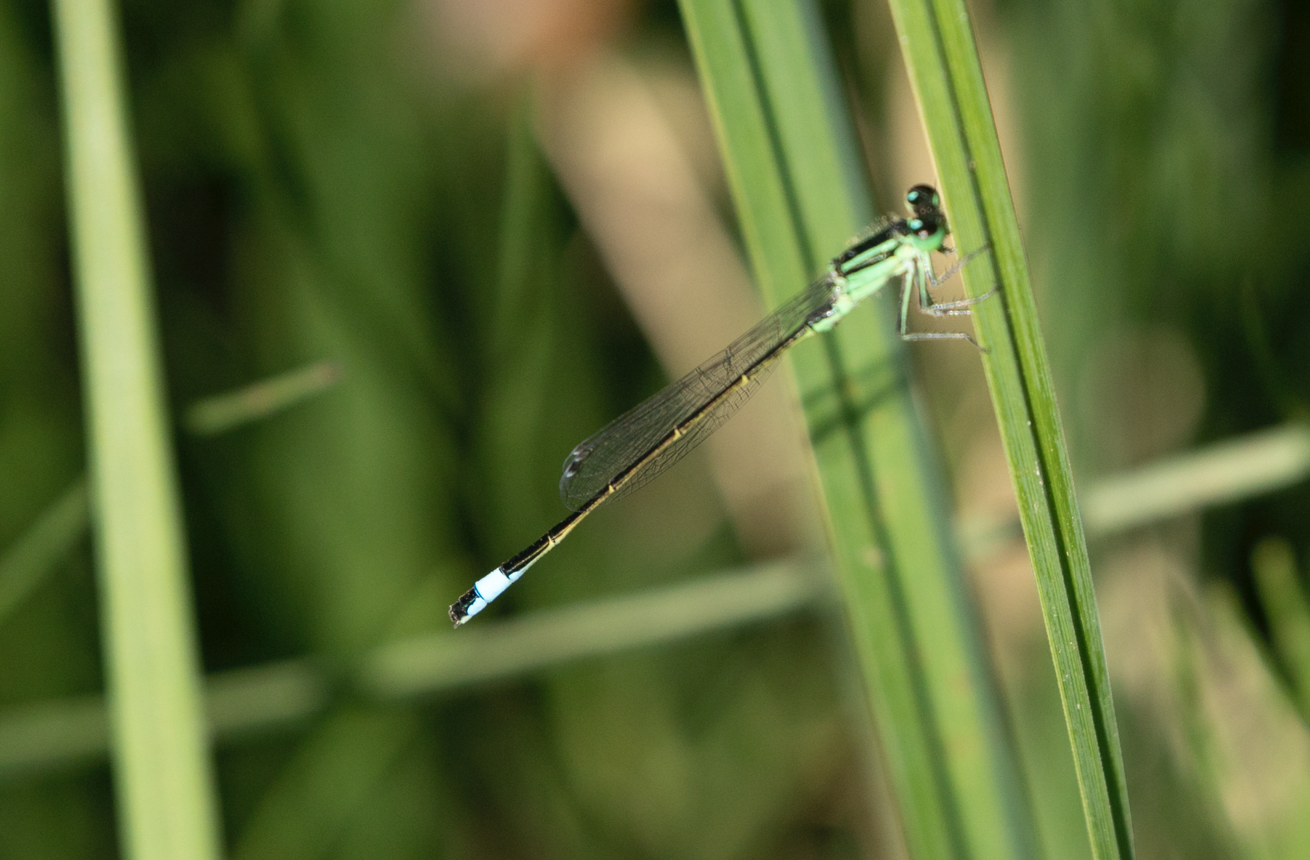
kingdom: Animalia
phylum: Arthropoda
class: Insecta
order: Odonata
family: Coenagrionidae
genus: Ischnura
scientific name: Ischnura elegans
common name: Blue-tailed damselfly
